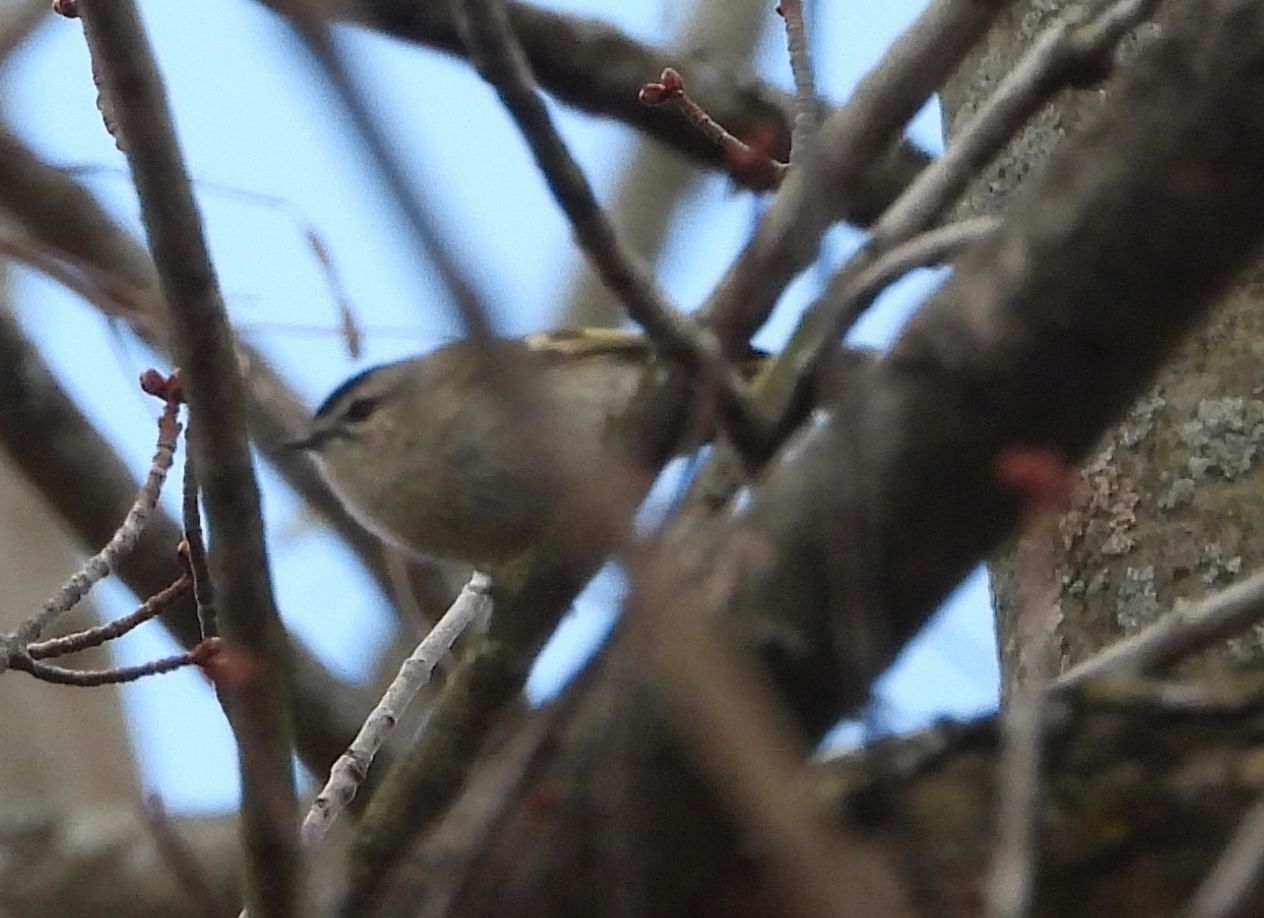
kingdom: Animalia
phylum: Chordata
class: Aves
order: Passeriformes
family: Regulidae
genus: Regulus
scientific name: Regulus satrapa
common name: Golden-crowned kinglet
